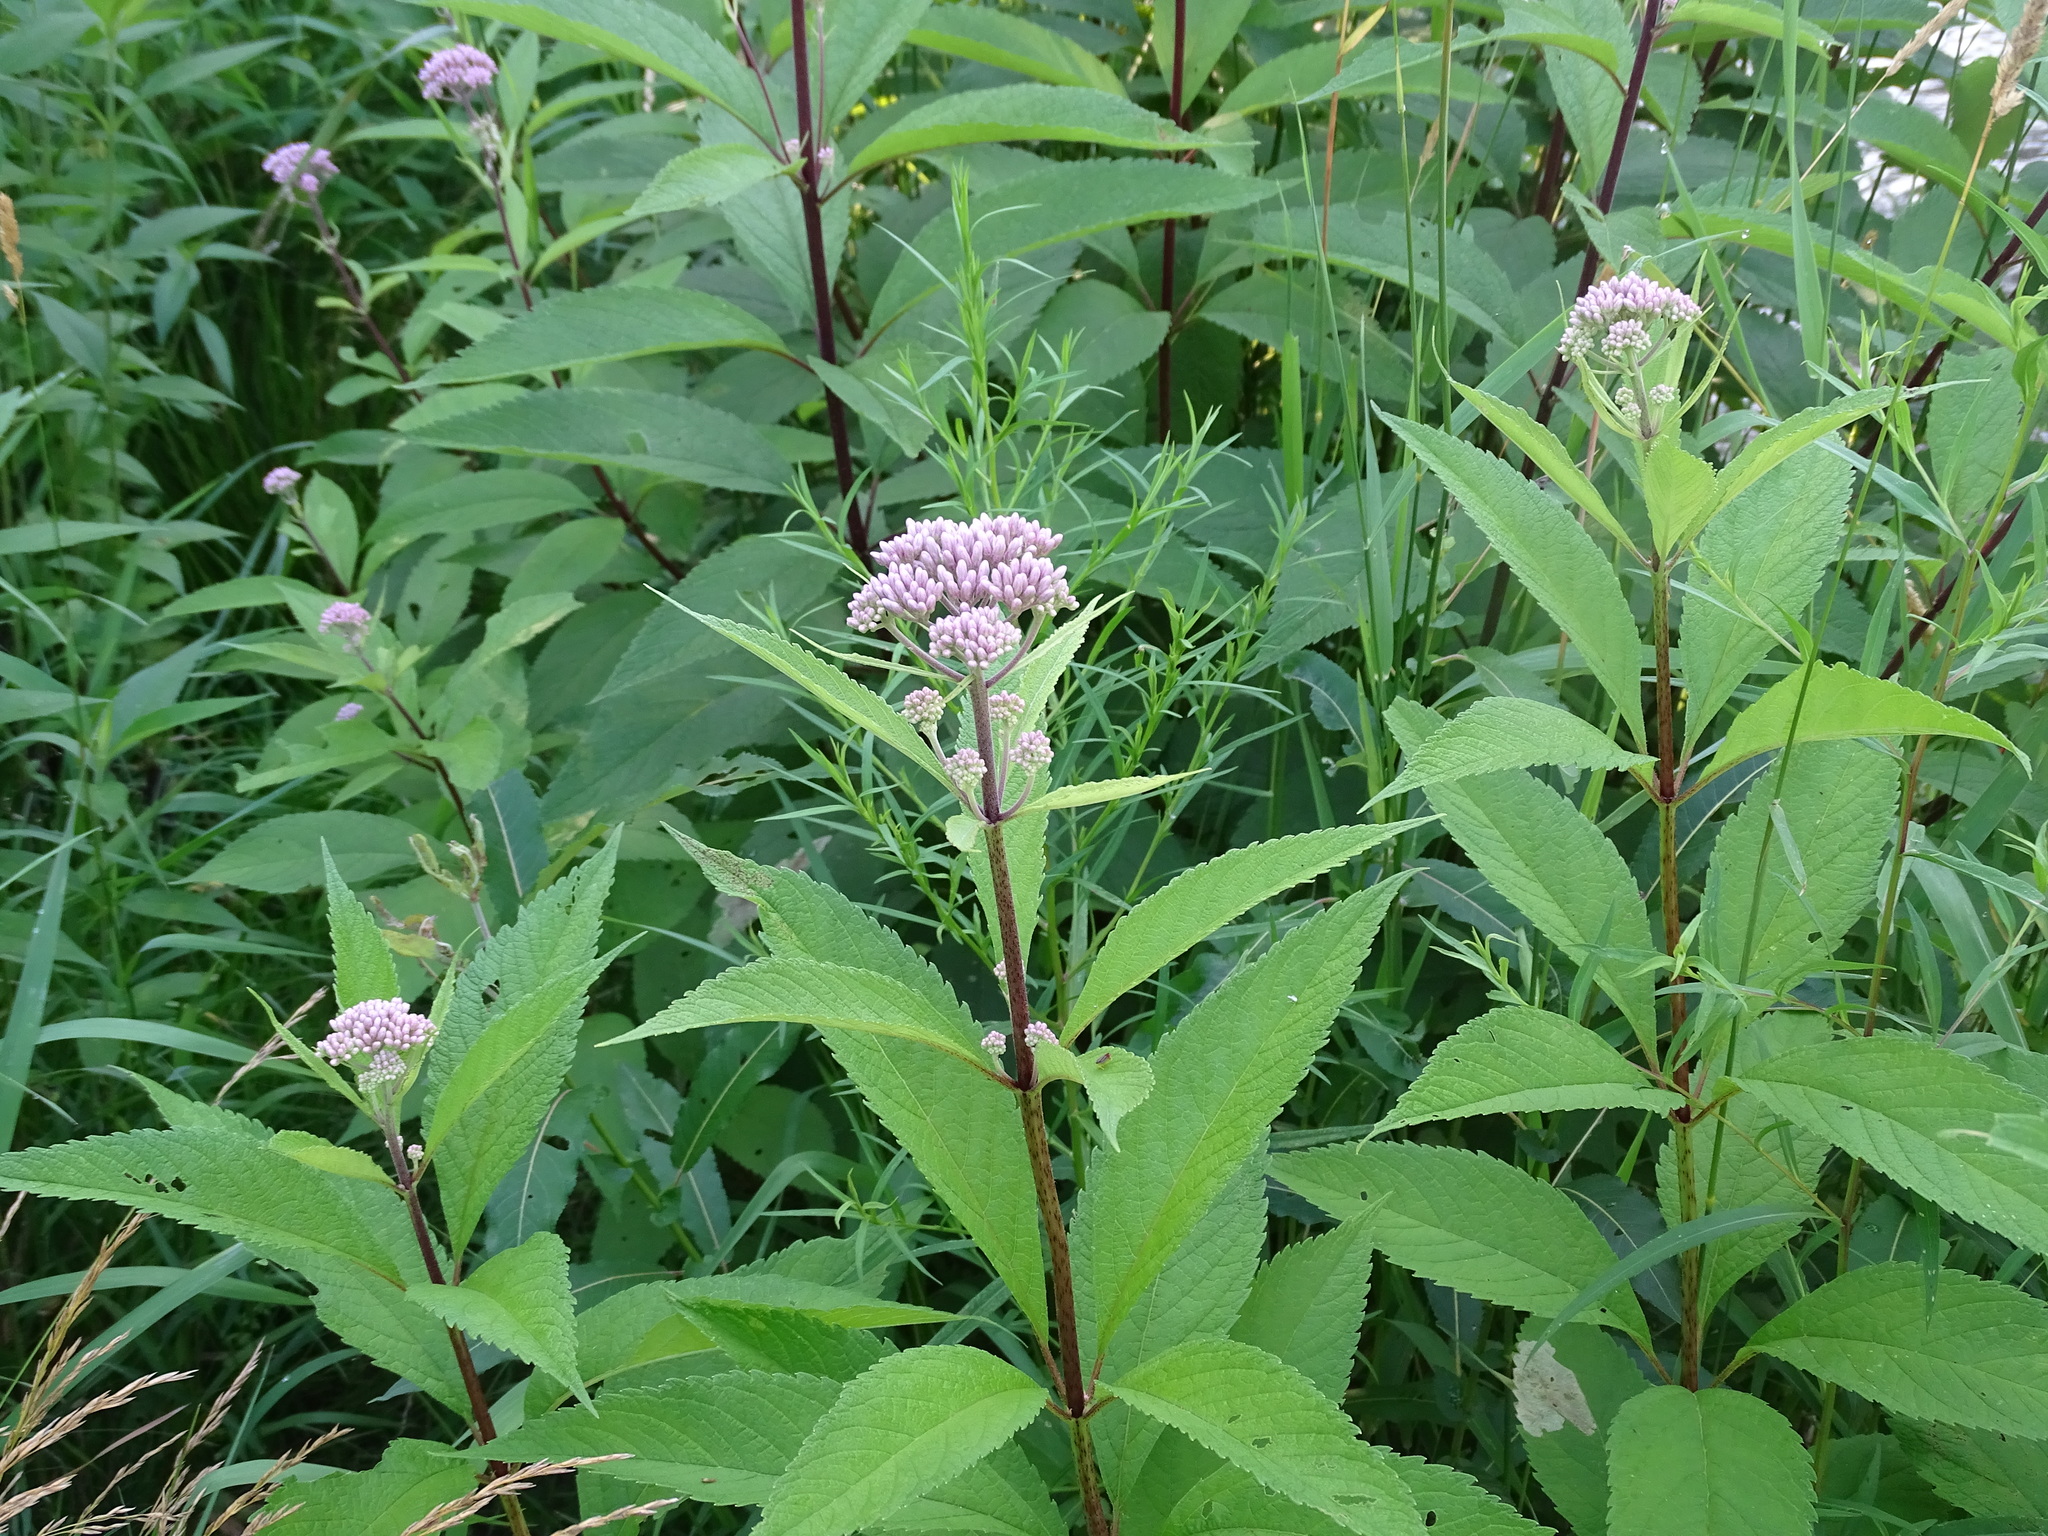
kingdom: Plantae
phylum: Tracheophyta
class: Magnoliopsida
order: Asterales
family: Asteraceae
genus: Eutrochium
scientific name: Eutrochium maculatum
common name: Spotted joe pye weed
